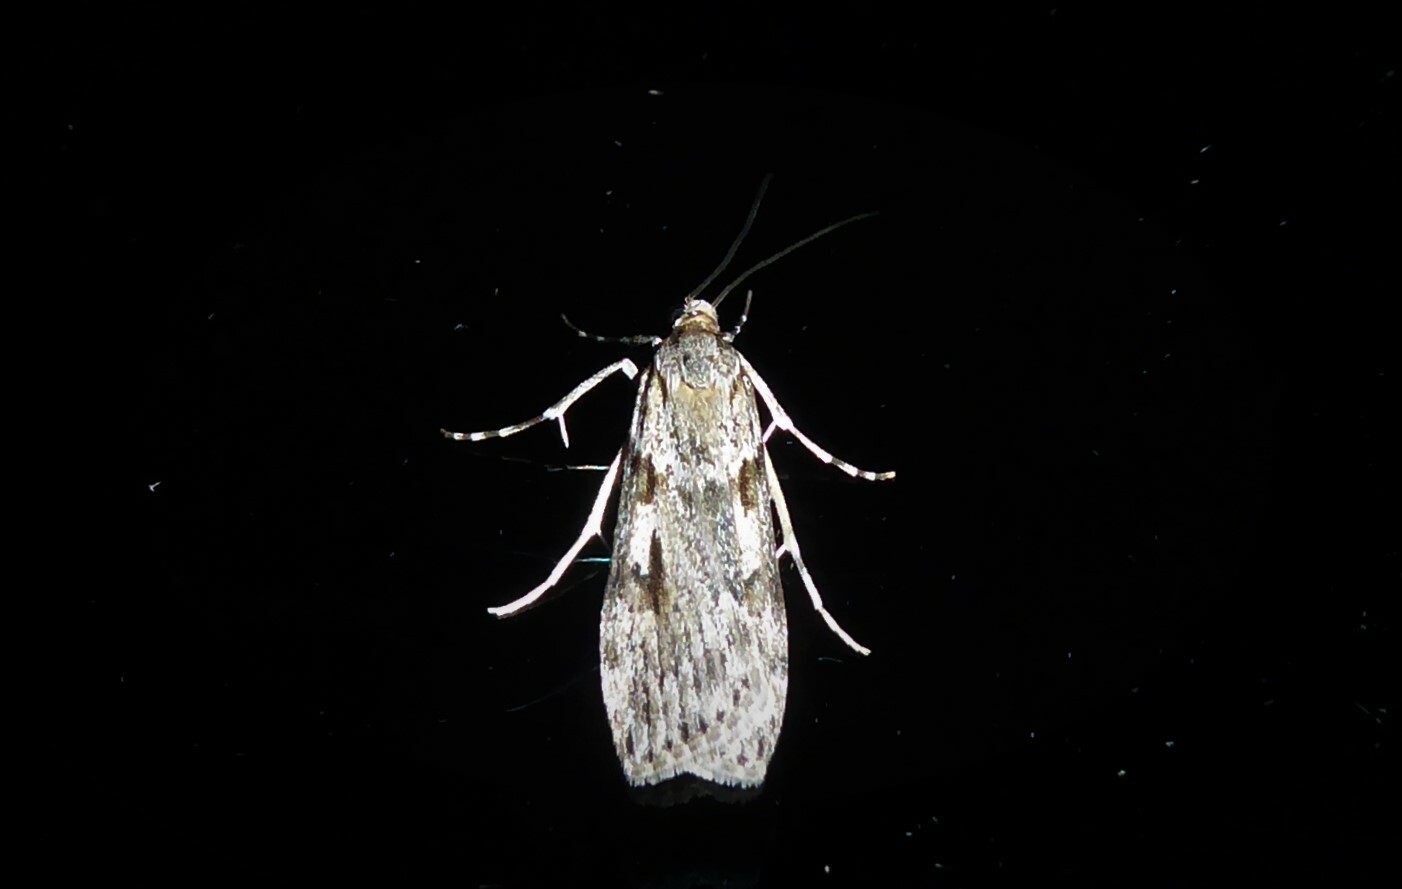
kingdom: Animalia
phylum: Arthropoda
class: Insecta
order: Lepidoptera
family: Crambidae
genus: Scoparia
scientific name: Scoparia halopis
